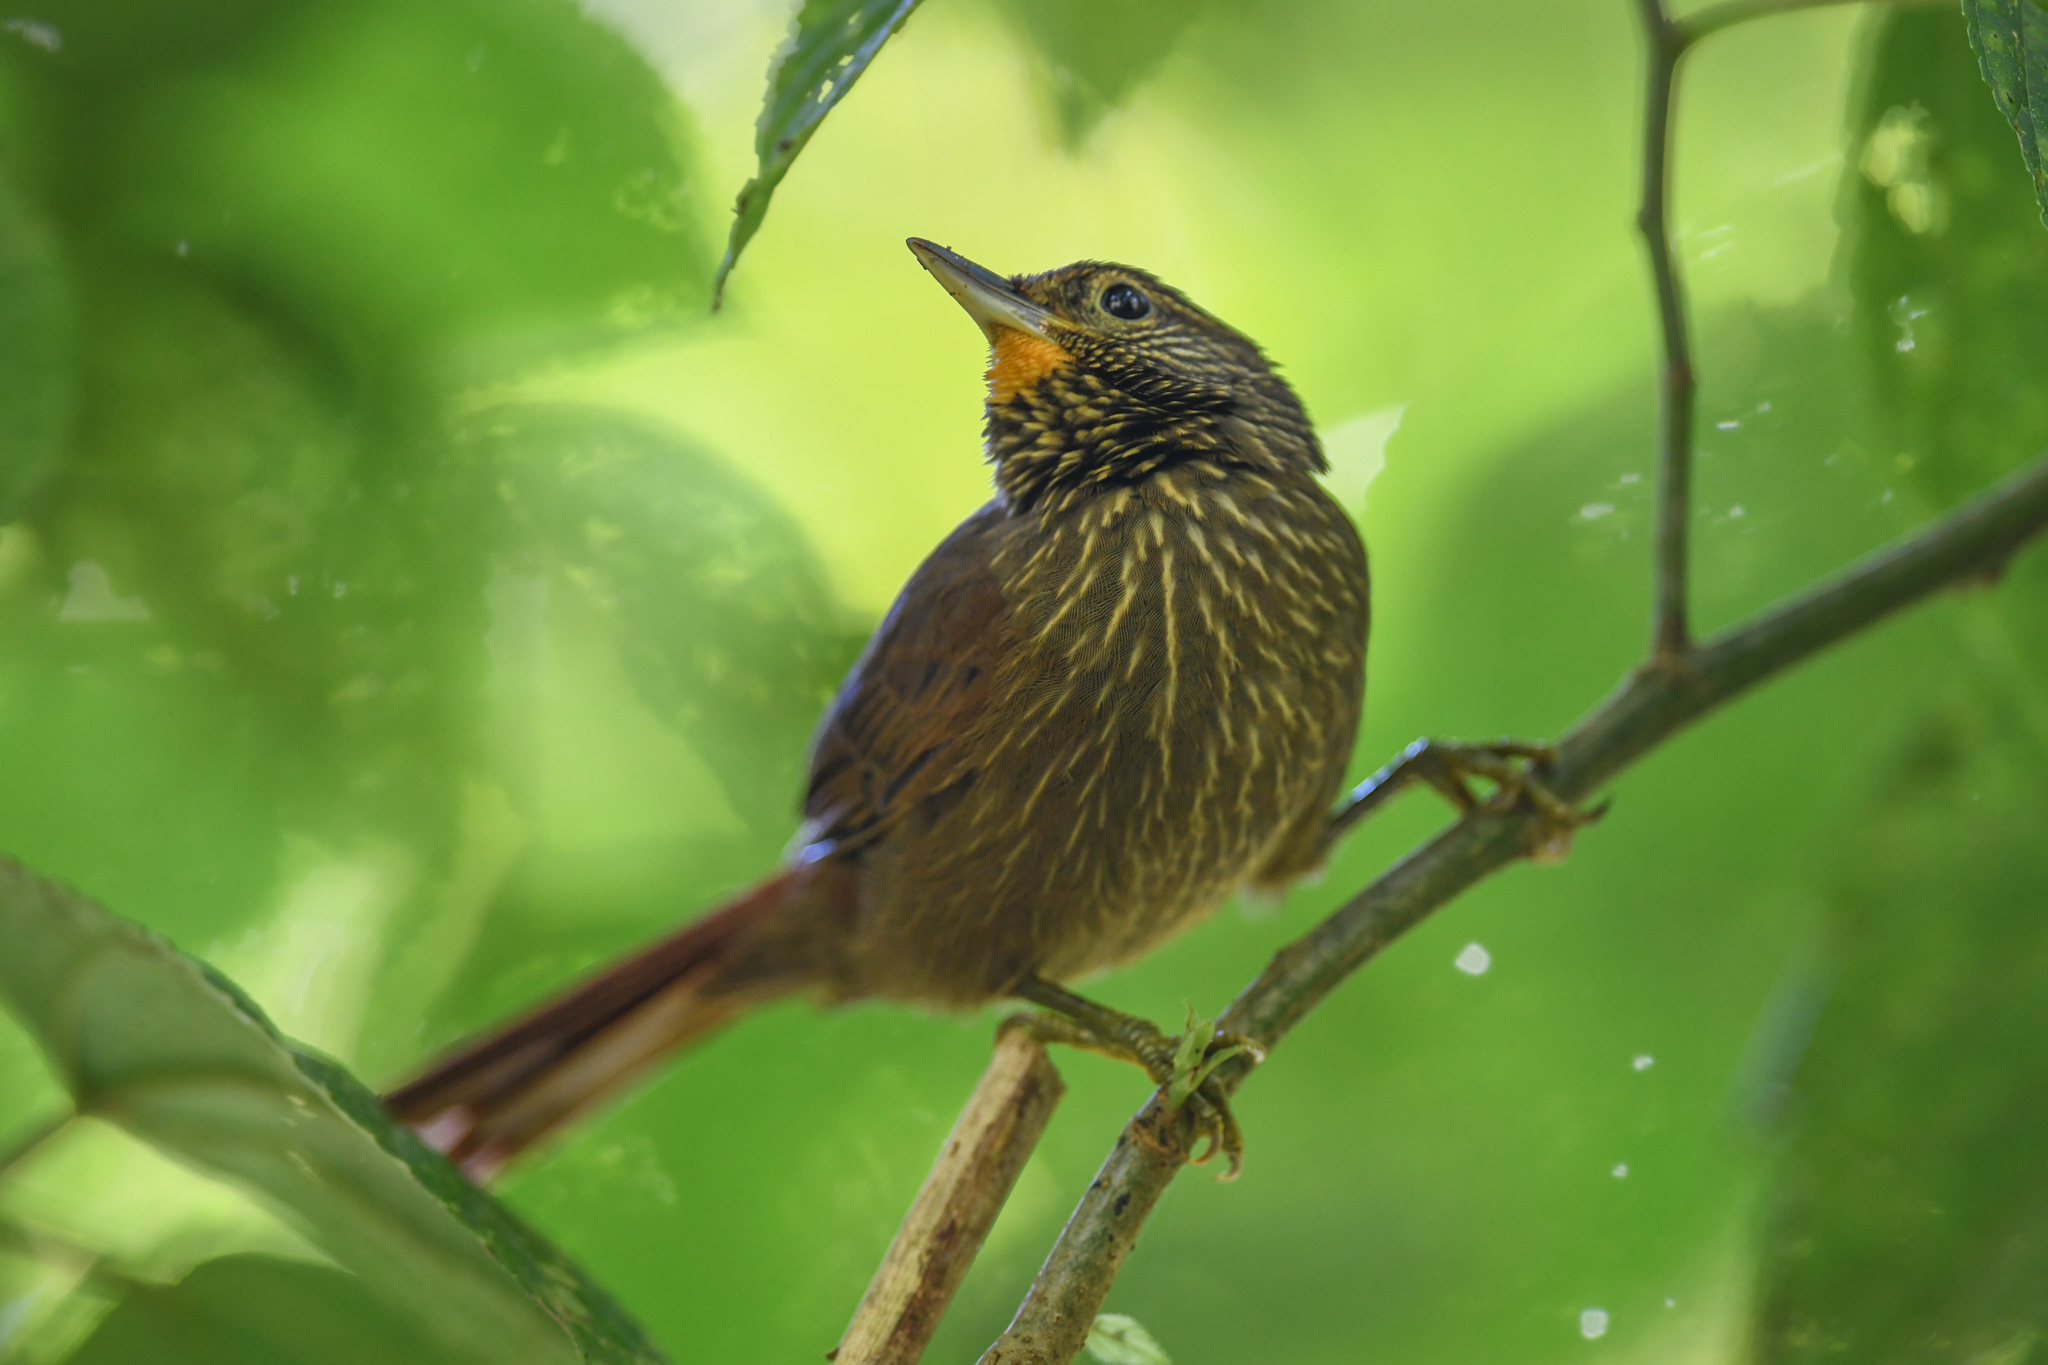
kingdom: Animalia
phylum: Chordata
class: Aves
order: Passeriformes
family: Furnariidae
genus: Syndactyla
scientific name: Syndactyla subalaris
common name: Lineated foliage-gleaner
